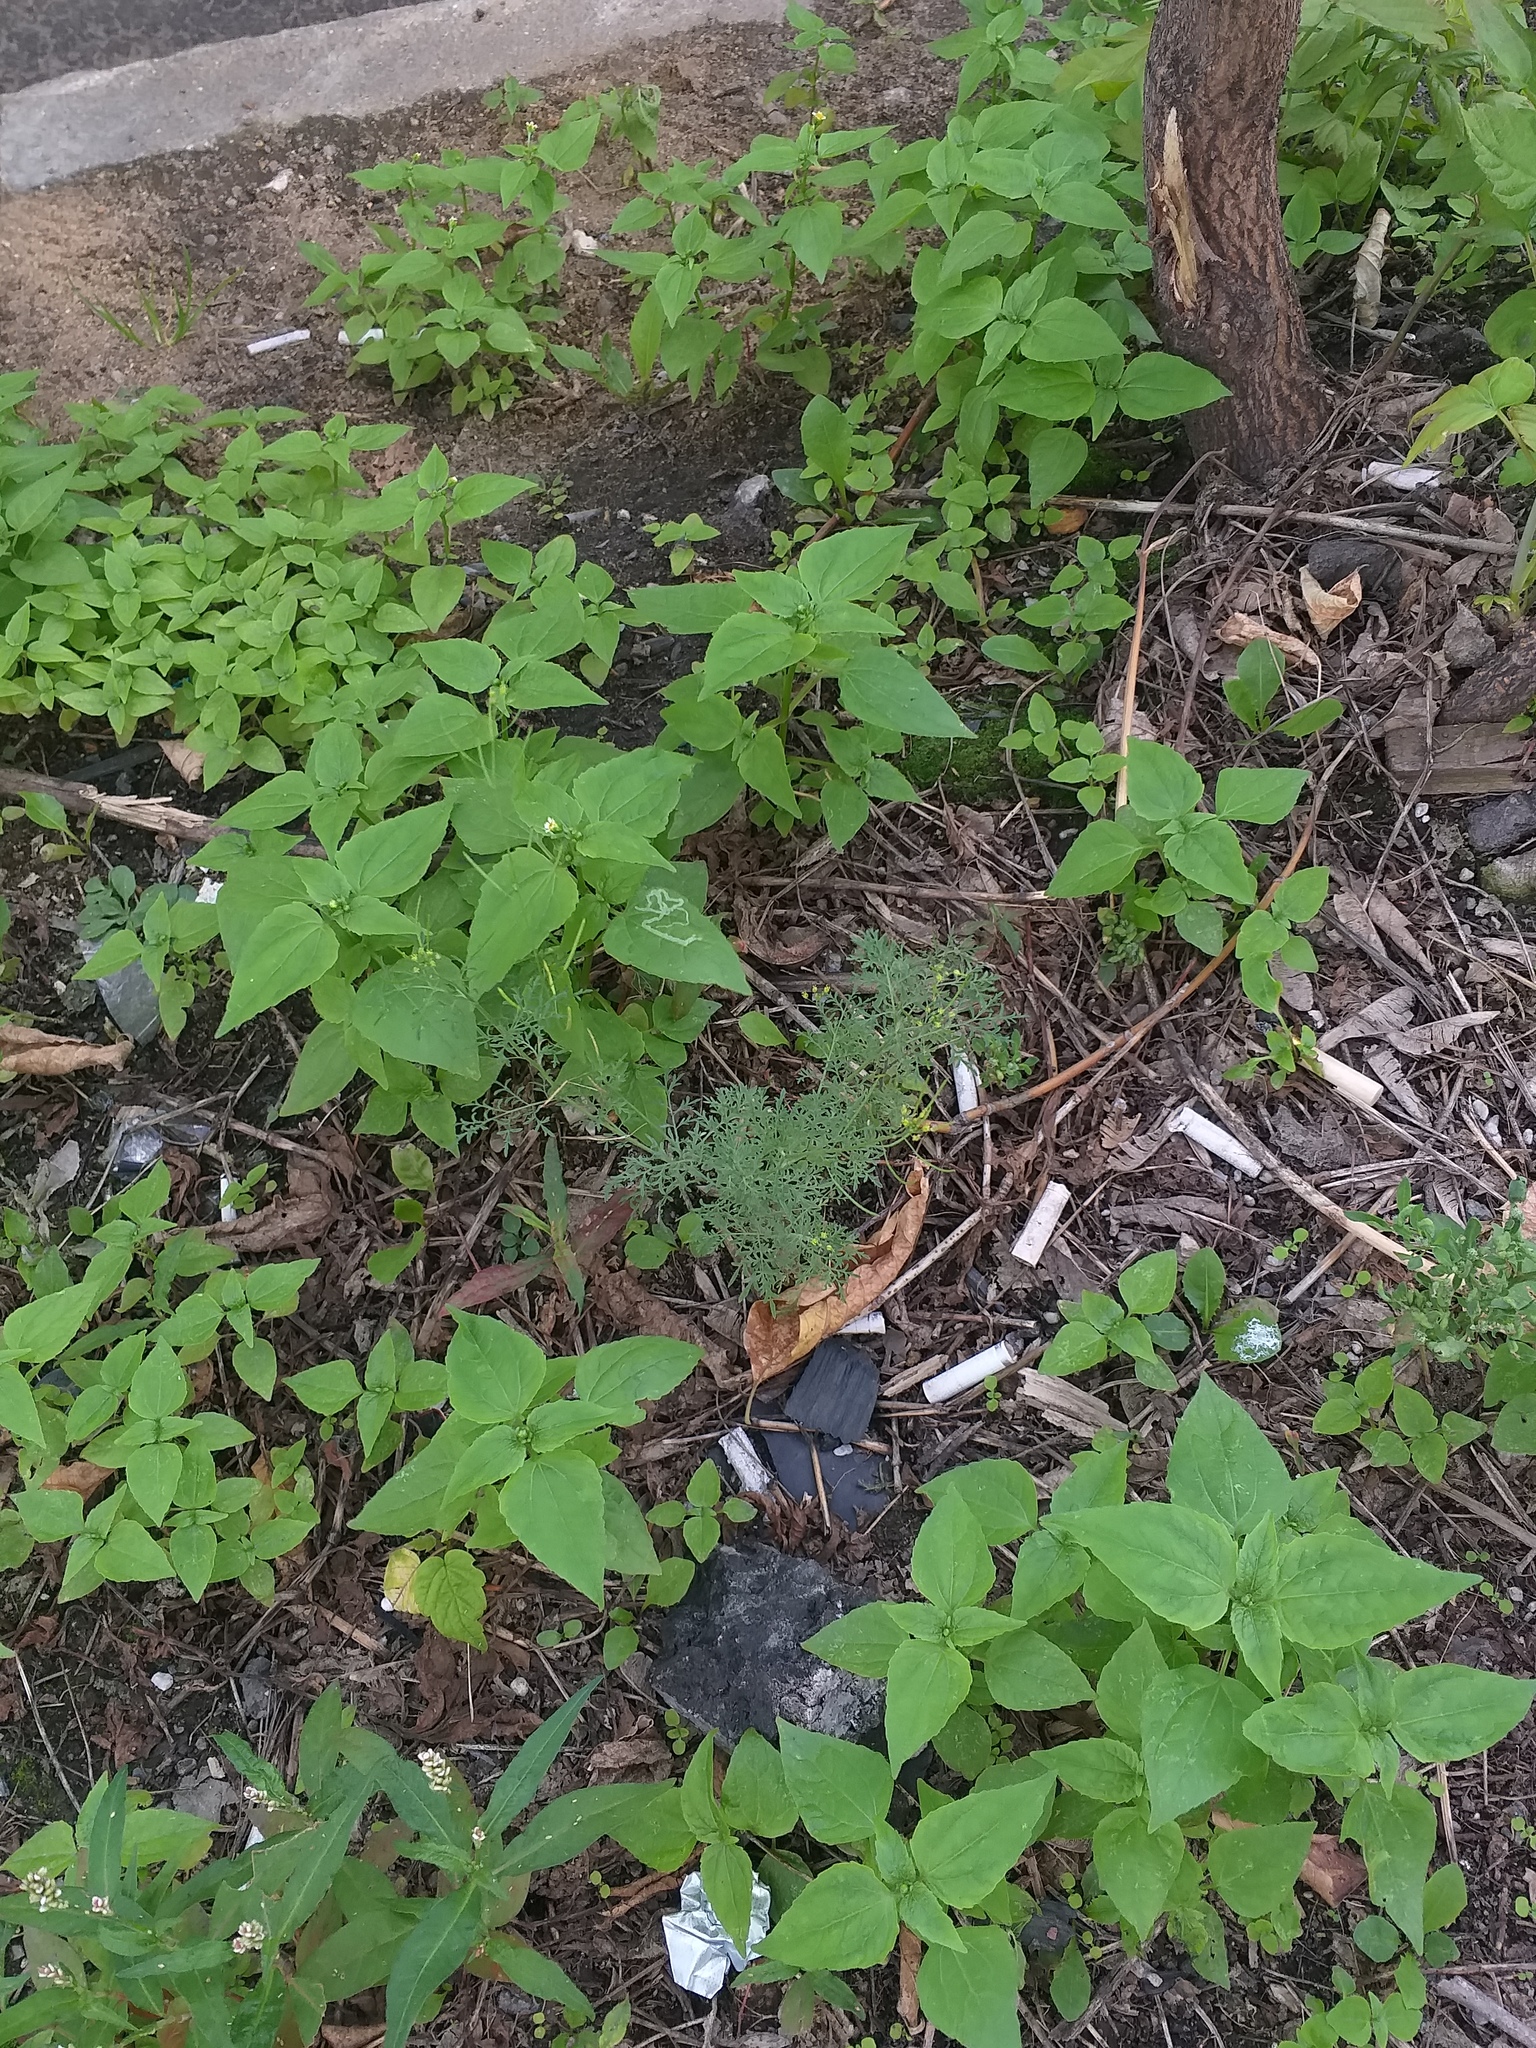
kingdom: Plantae
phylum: Tracheophyta
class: Magnoliopsida
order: Brassicales
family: Brassicaceae
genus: Descurainia
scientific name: Descurainia sophia
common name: Flixweed
